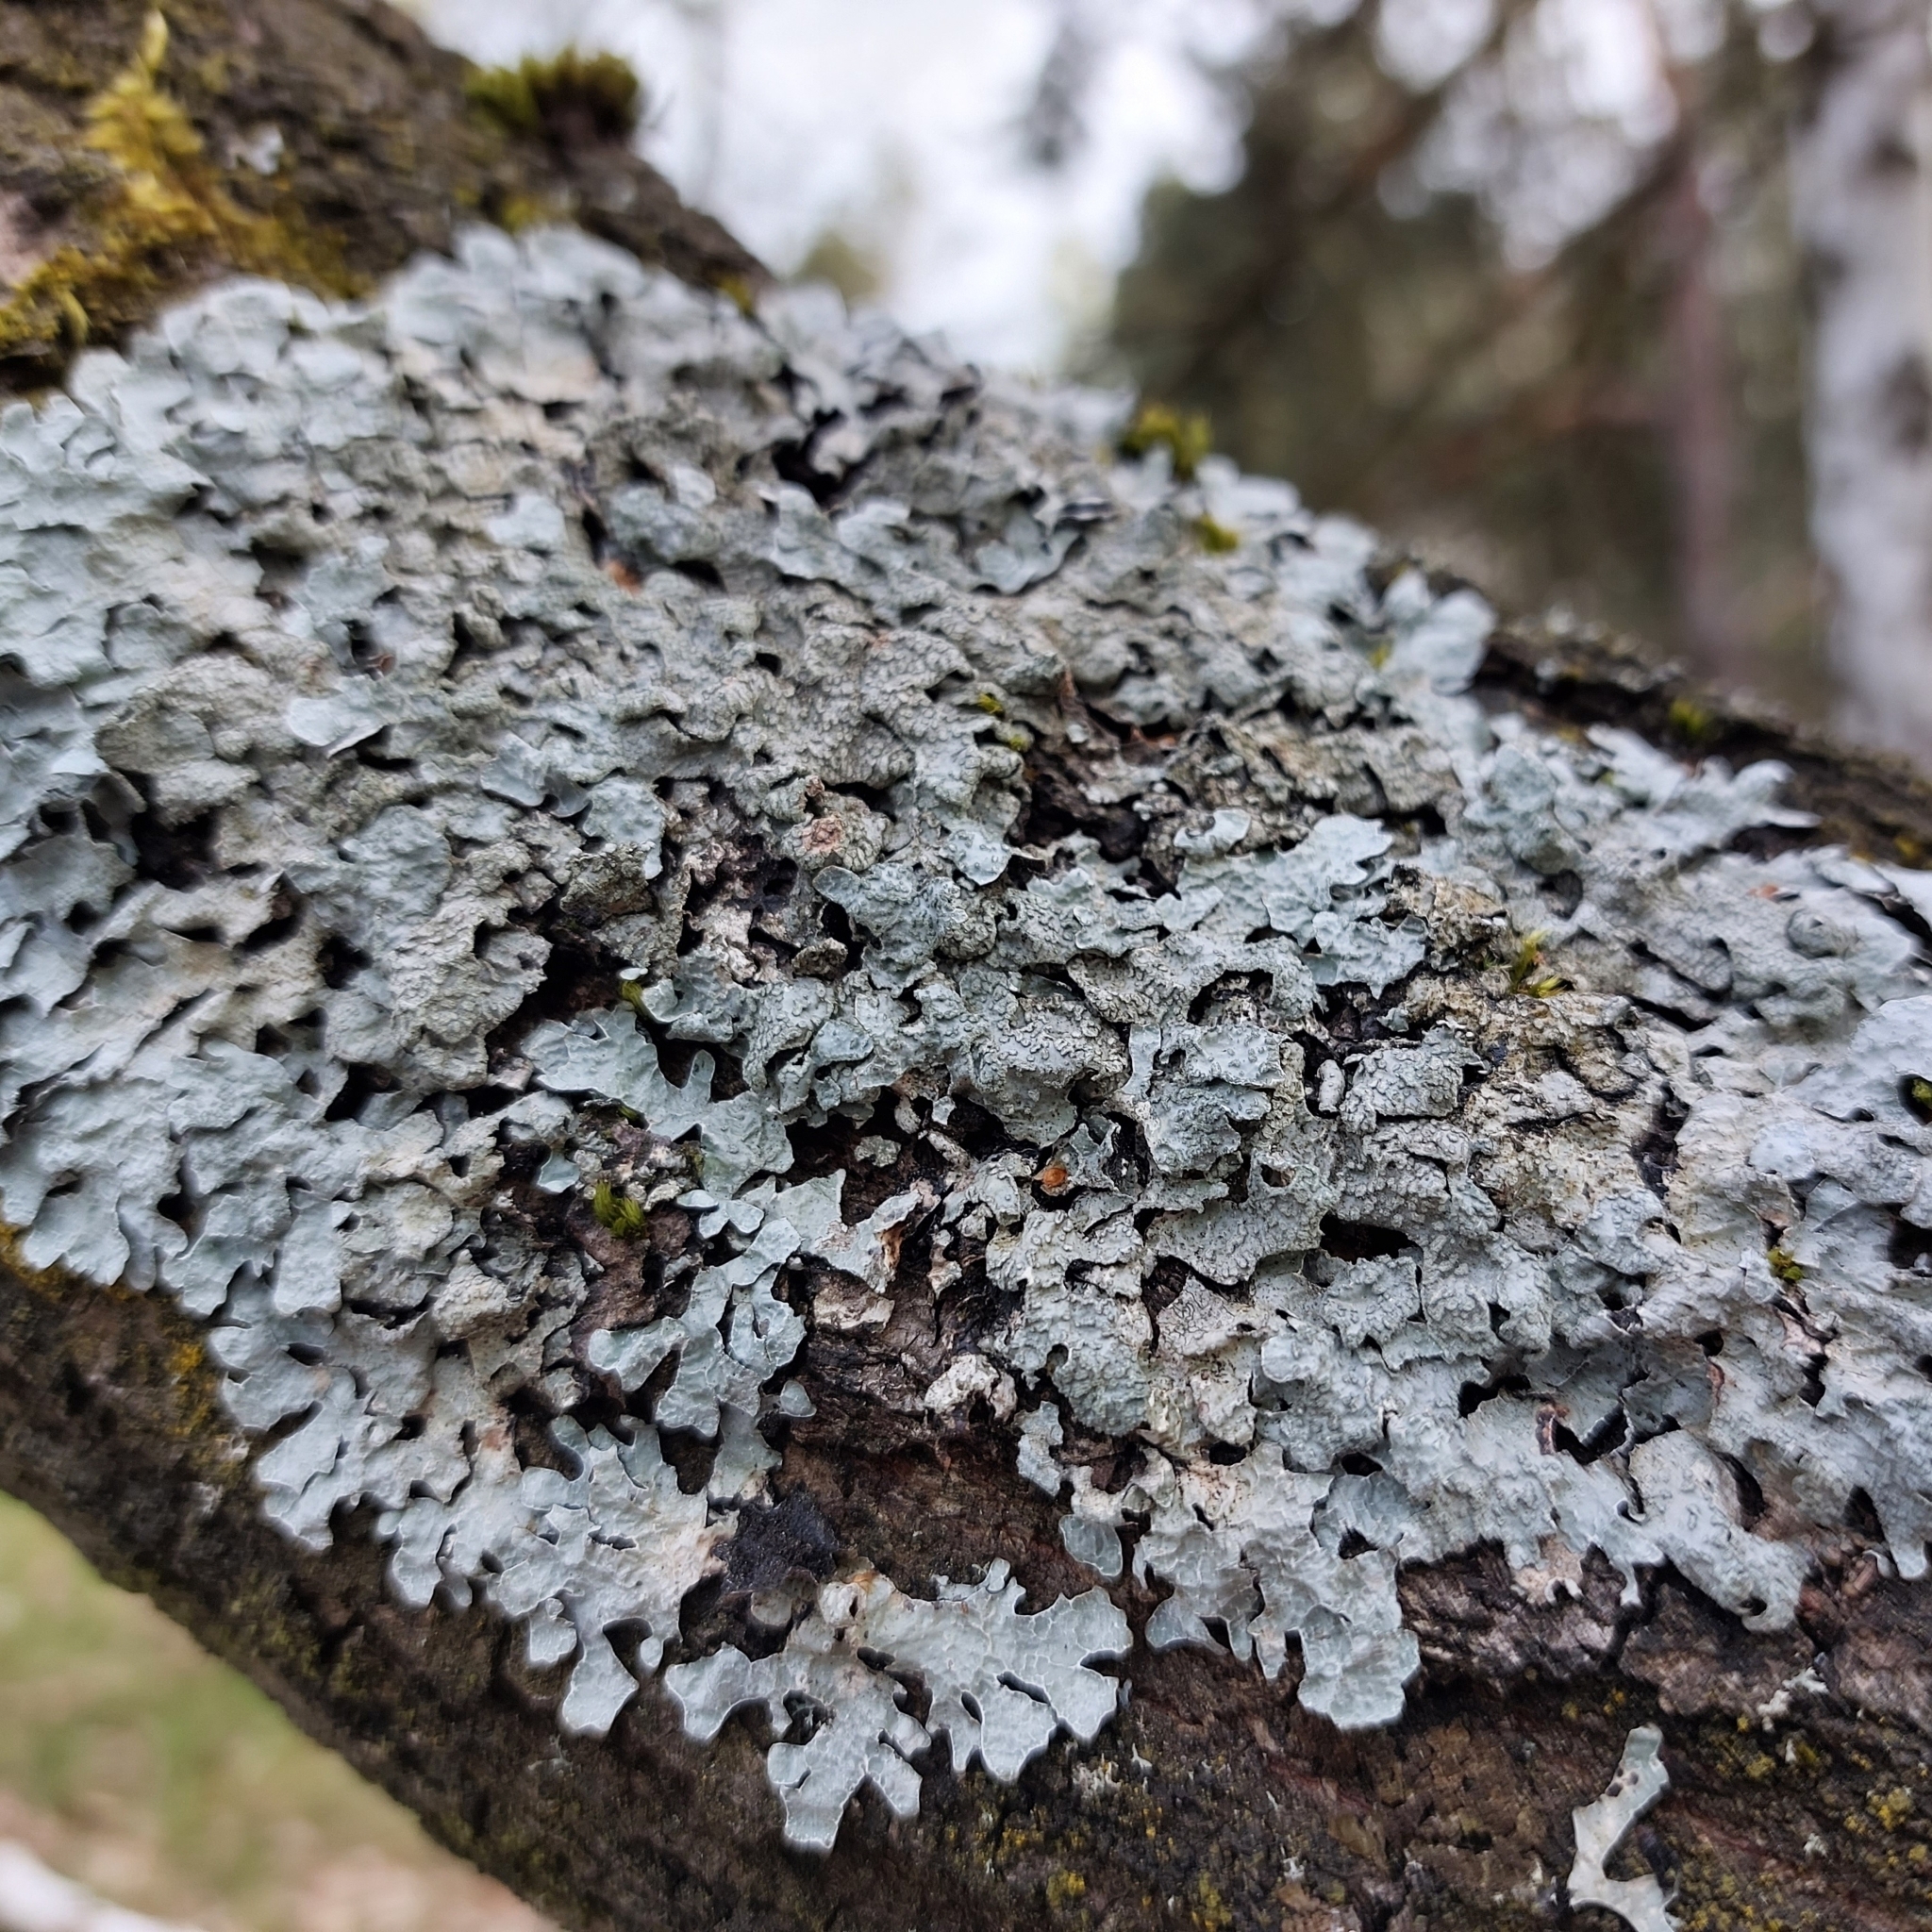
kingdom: Fungi
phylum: Ascomycota
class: Lecanoromycetes
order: Lecanorales
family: Parmeliaceae
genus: Parmelia
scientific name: Parmelia sulcata
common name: Netted shield lichen
